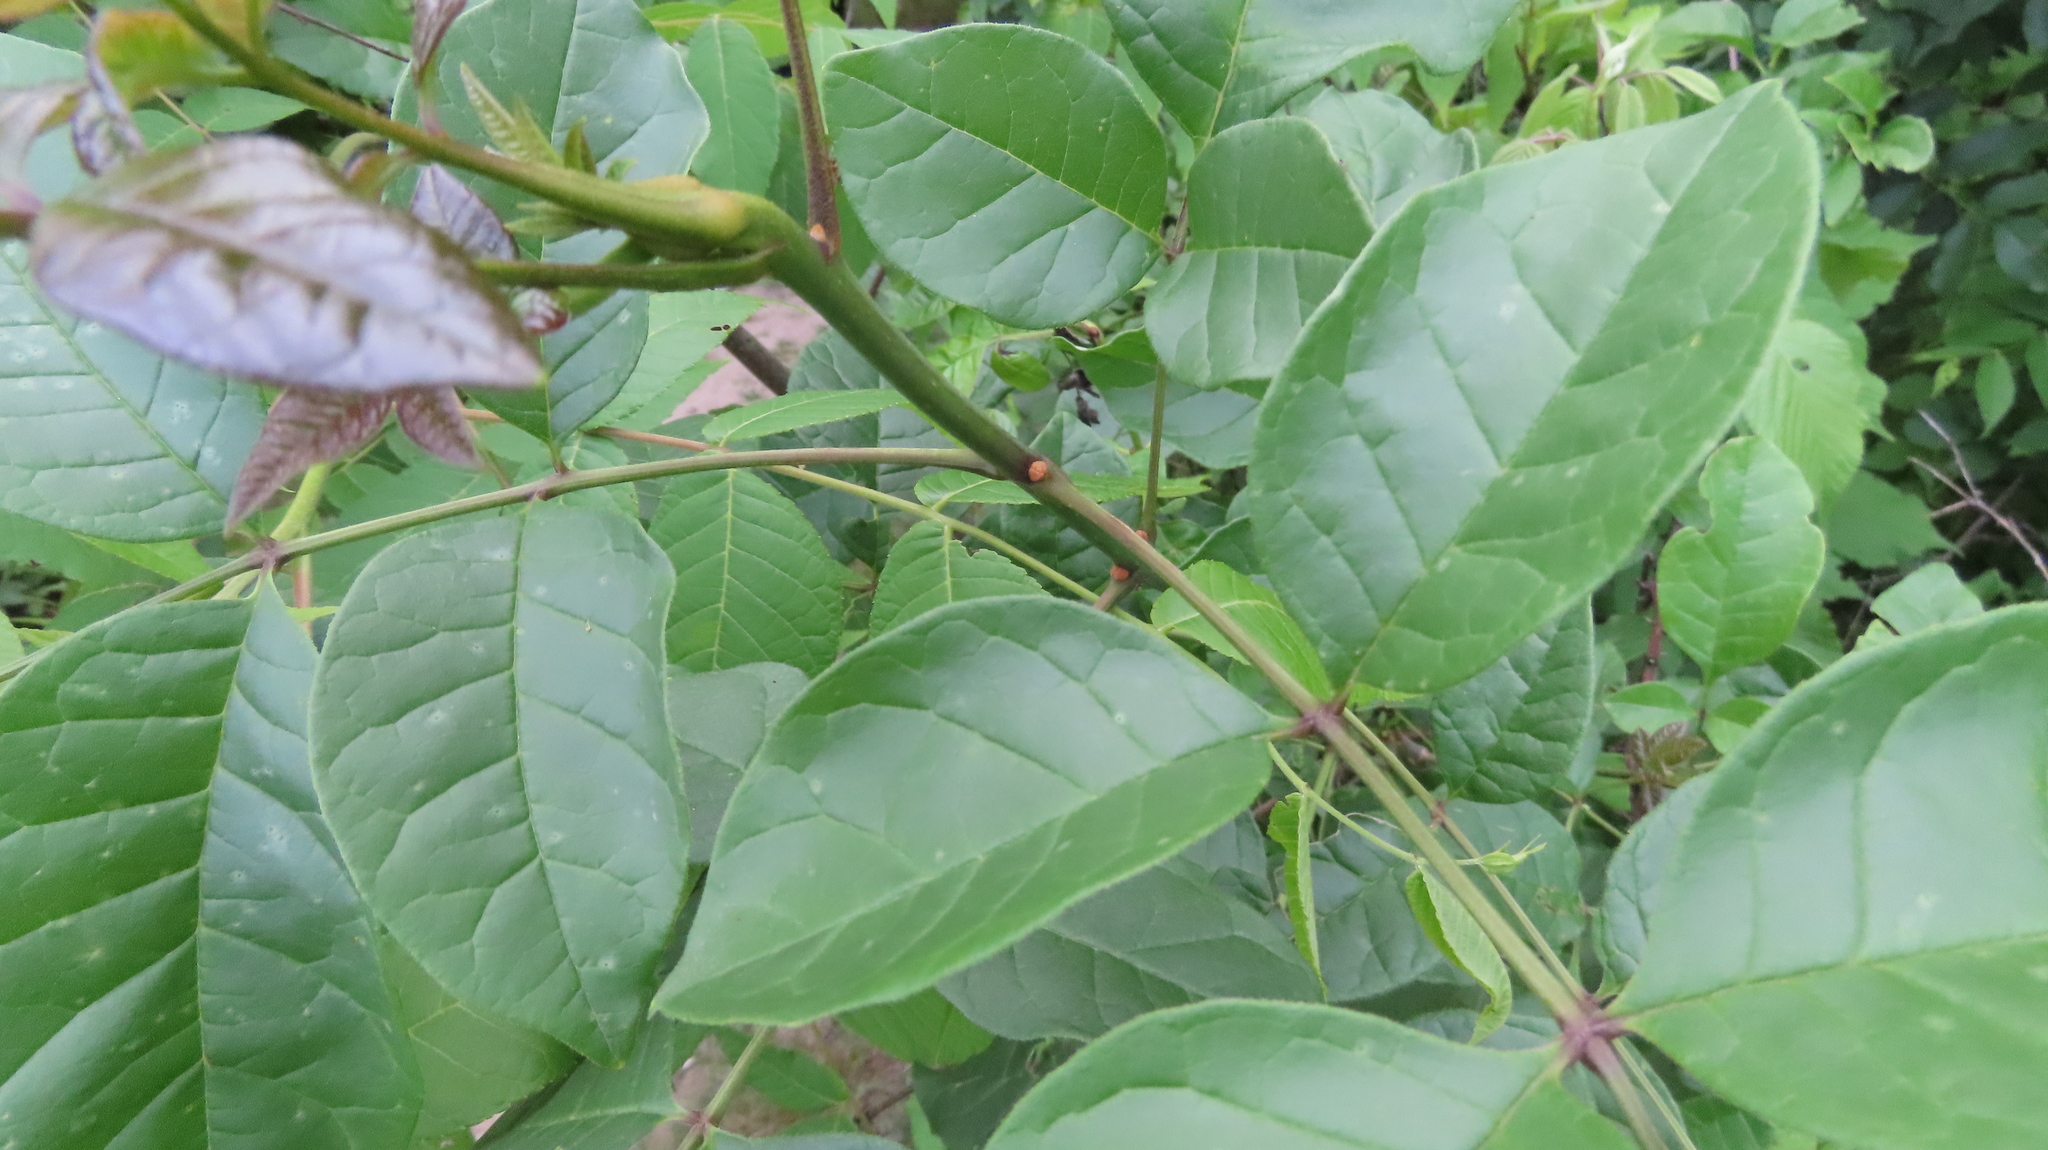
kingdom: Plantae
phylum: Tracheophyta
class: Magnoliopsida
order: Lamiales
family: Oleaceae
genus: Fraxinus
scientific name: Fraxinus americana
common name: White ash
